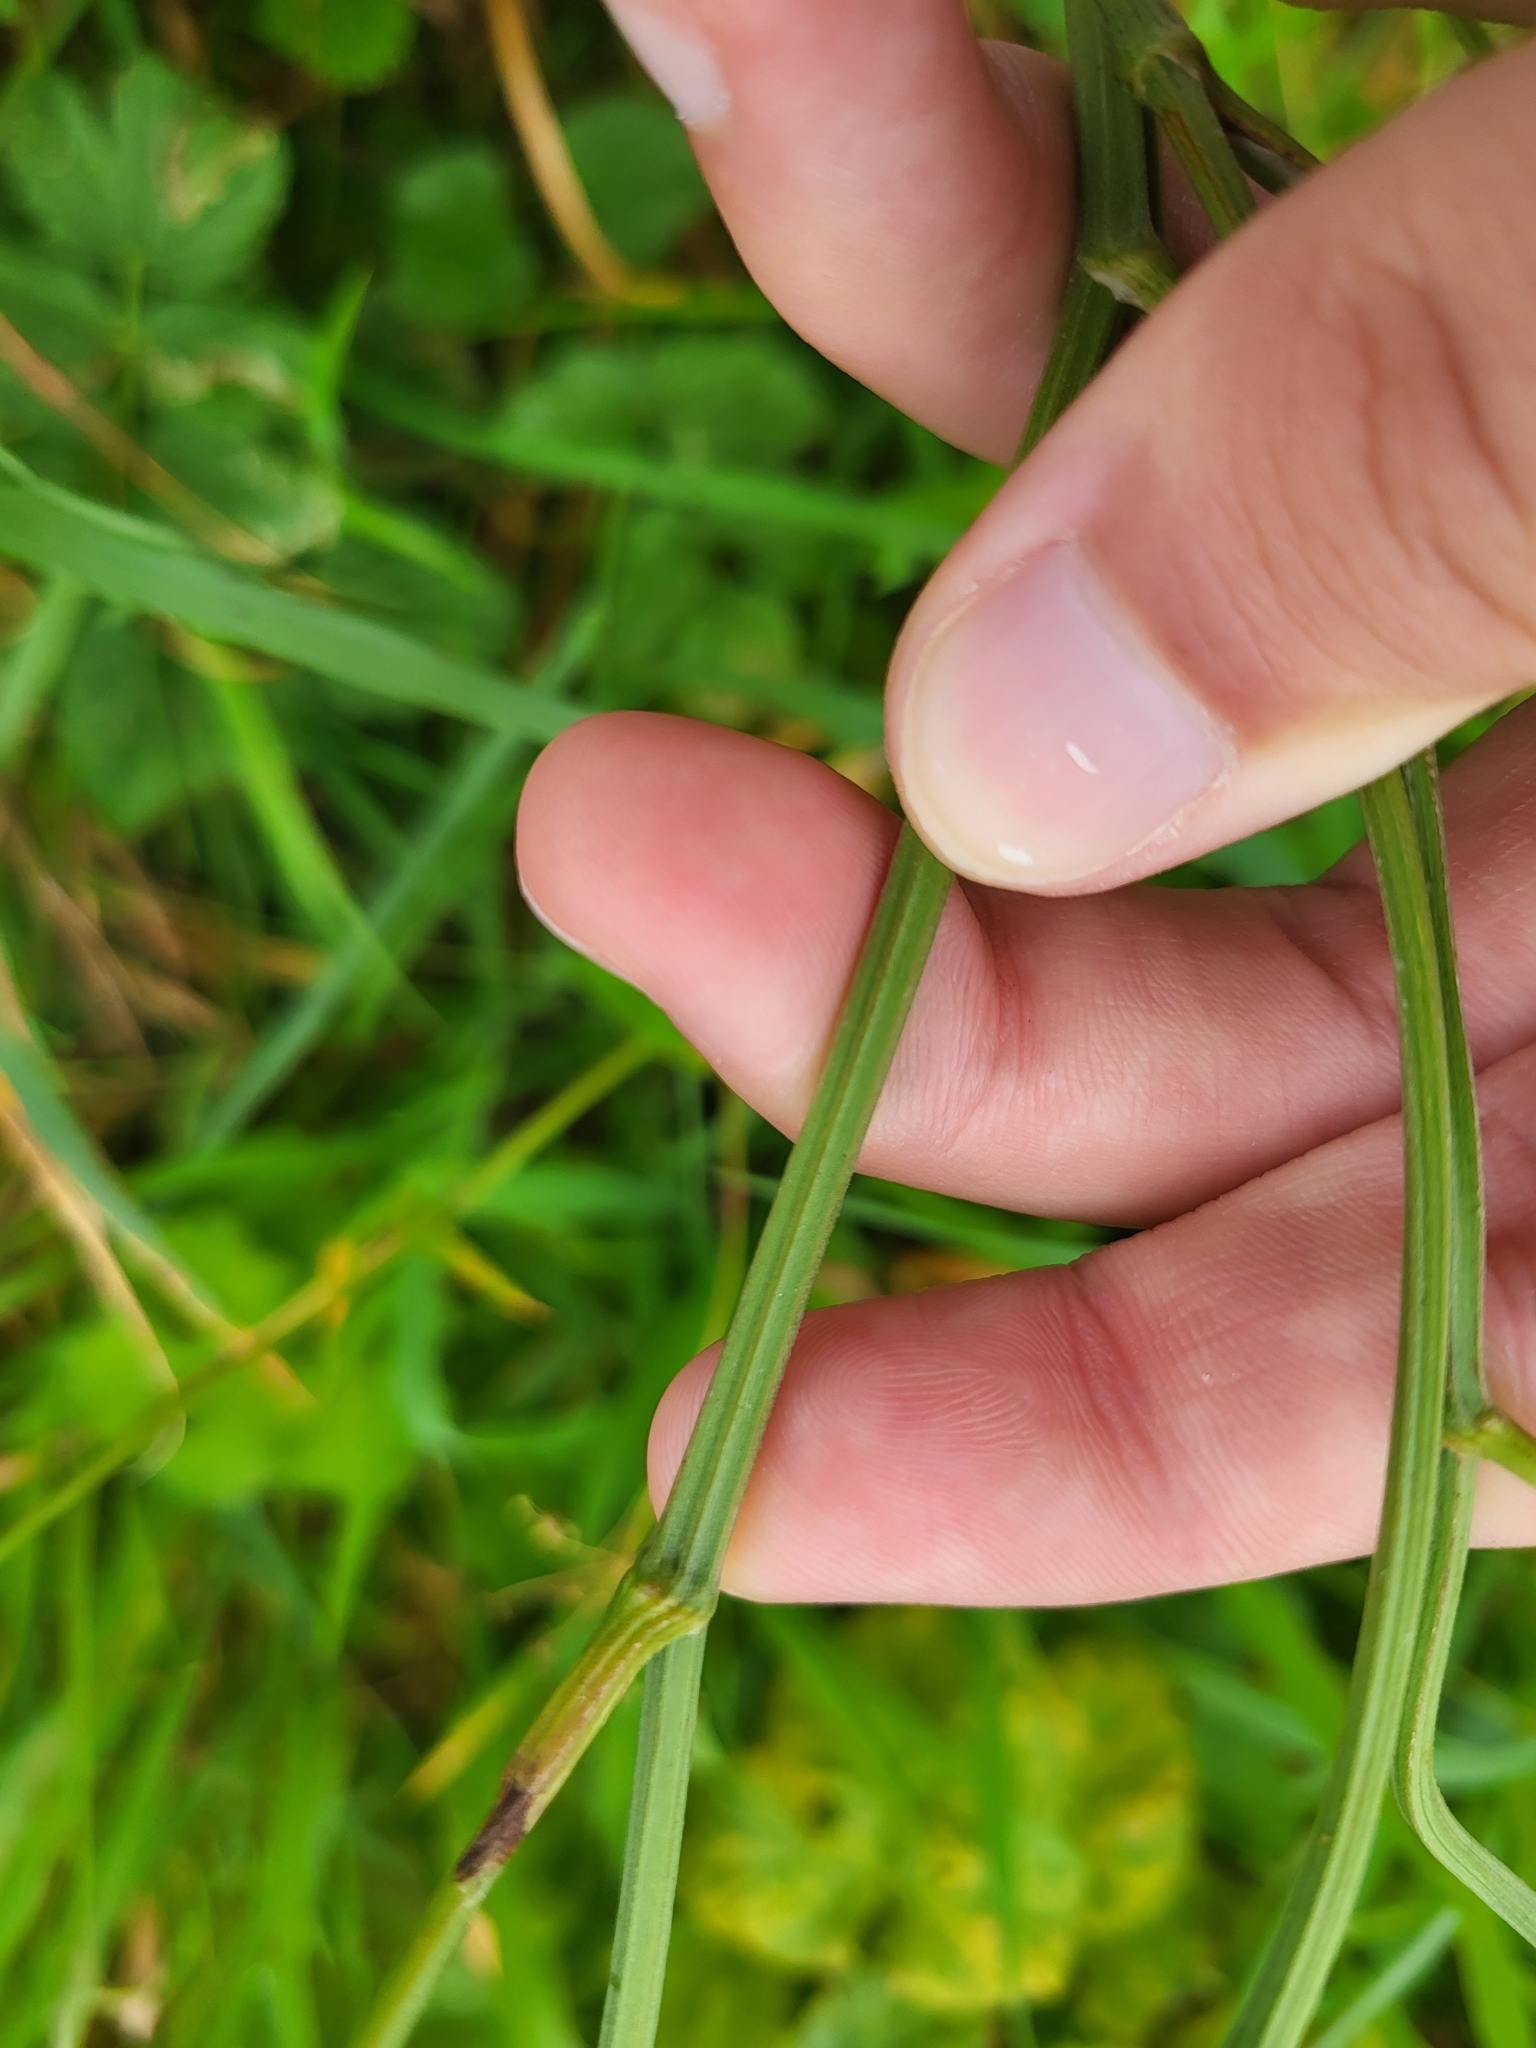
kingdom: Plantae
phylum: Tracheophyta
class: Magnoliopsida
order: Apiales
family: Apiaceae
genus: Pimpinella
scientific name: Pimpinella saxifraga
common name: Burnet-saxifrage
